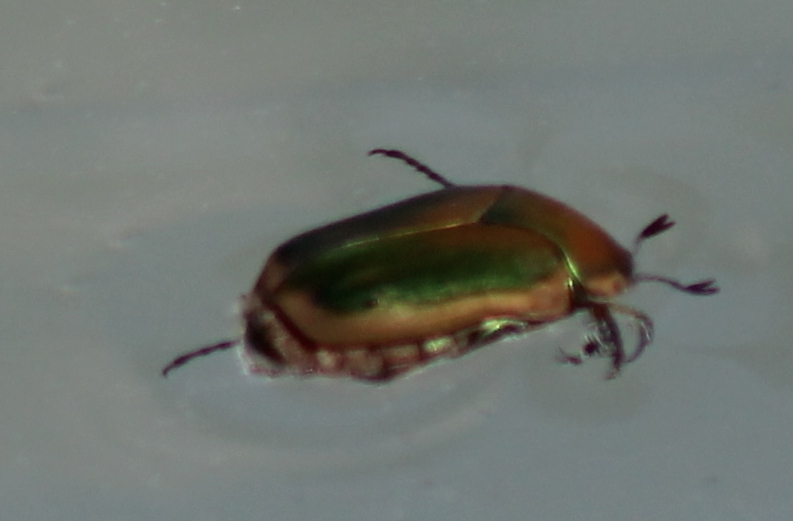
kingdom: Animalia
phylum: Arthropoda
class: Insecta
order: Coleoptera
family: Scarabaeidae
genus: Cotinis
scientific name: Cotinis nitida
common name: Common green june beetle
